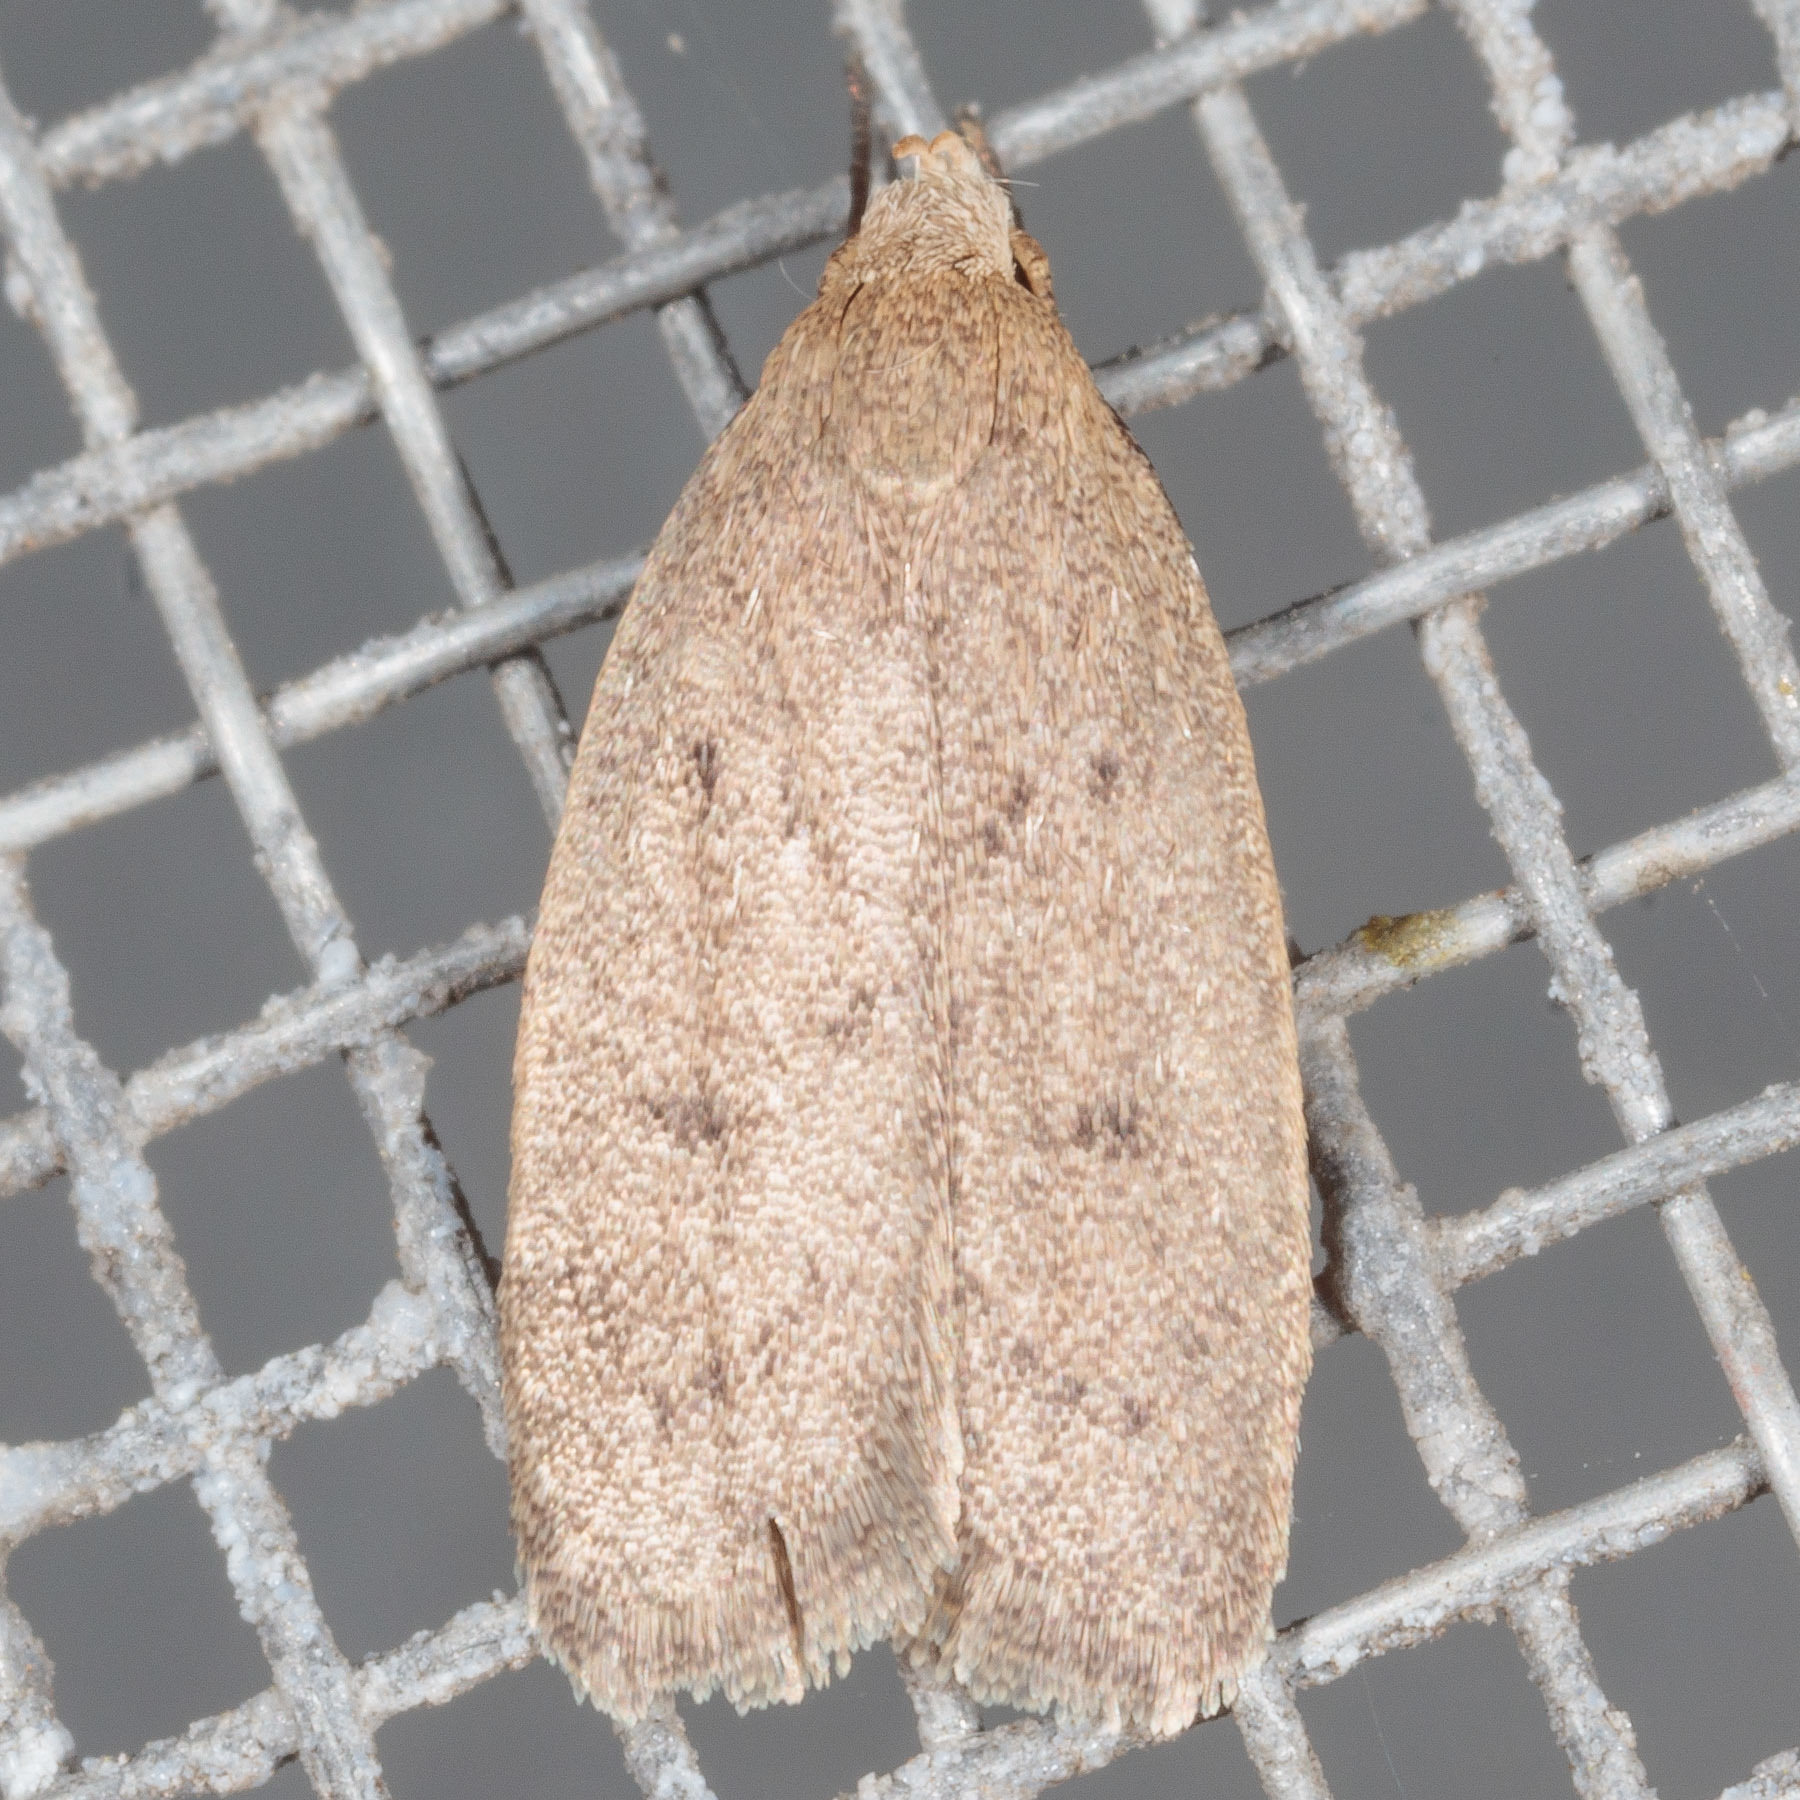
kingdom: Animalia
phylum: Arthropoda
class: Insecta
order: Lepidoptera
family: Oecophoridae
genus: Inga
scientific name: Inga obscuromaculella
